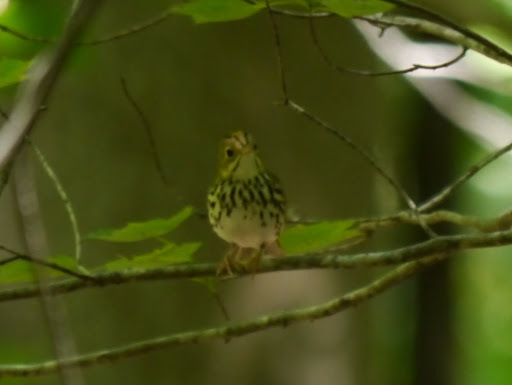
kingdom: Animalia
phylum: Chordata
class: Aves
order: Passeriformes
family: Parulidae
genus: Seiurus
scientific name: Seiurus aurocapilla
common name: Ovenbird
